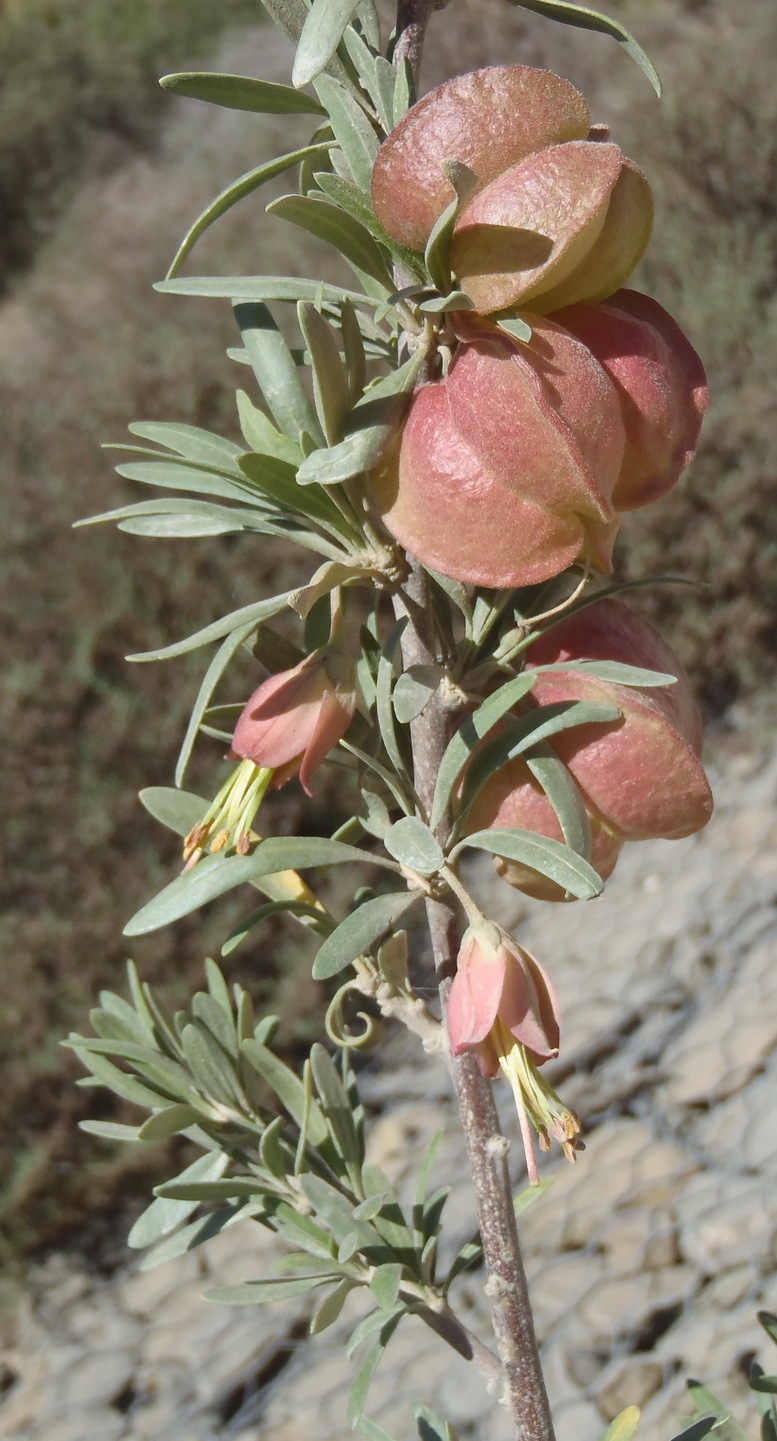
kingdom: Plantae
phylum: Tracheophyta
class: Magnoliopsida
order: Sapindales
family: Meliaceae
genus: Nymania
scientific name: Nymania capensis
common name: Chinese lantern tree
